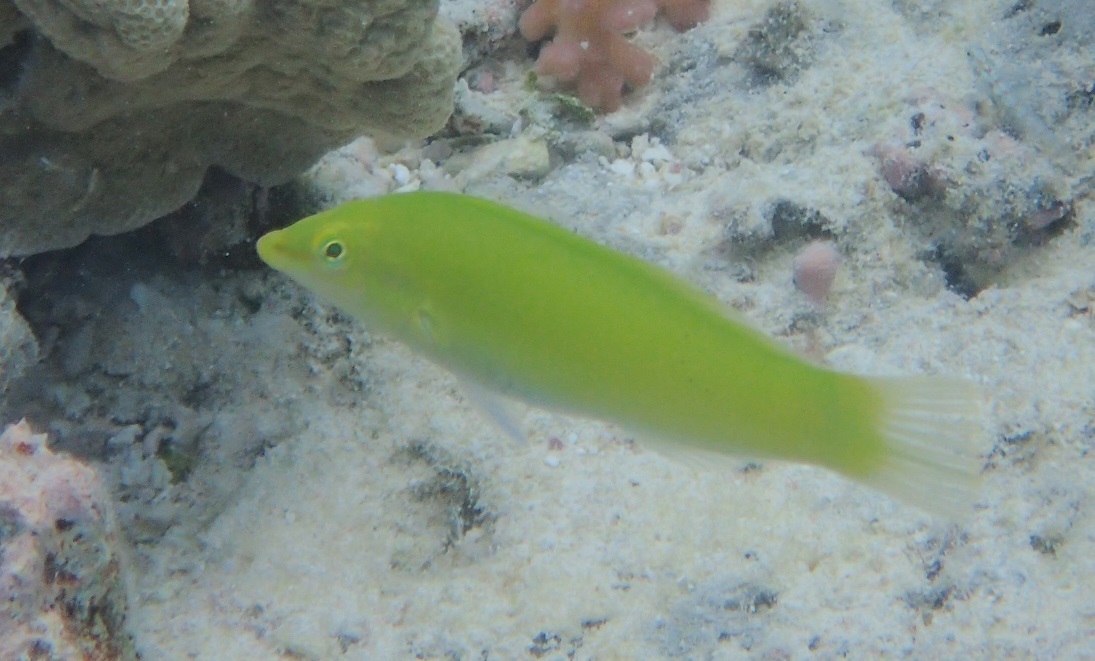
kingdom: Animalia
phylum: Chordata
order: Perciformes
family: Labridae
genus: Halichoeres
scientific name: Halichoeres chloropterus
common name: Pastel-green wrasse
